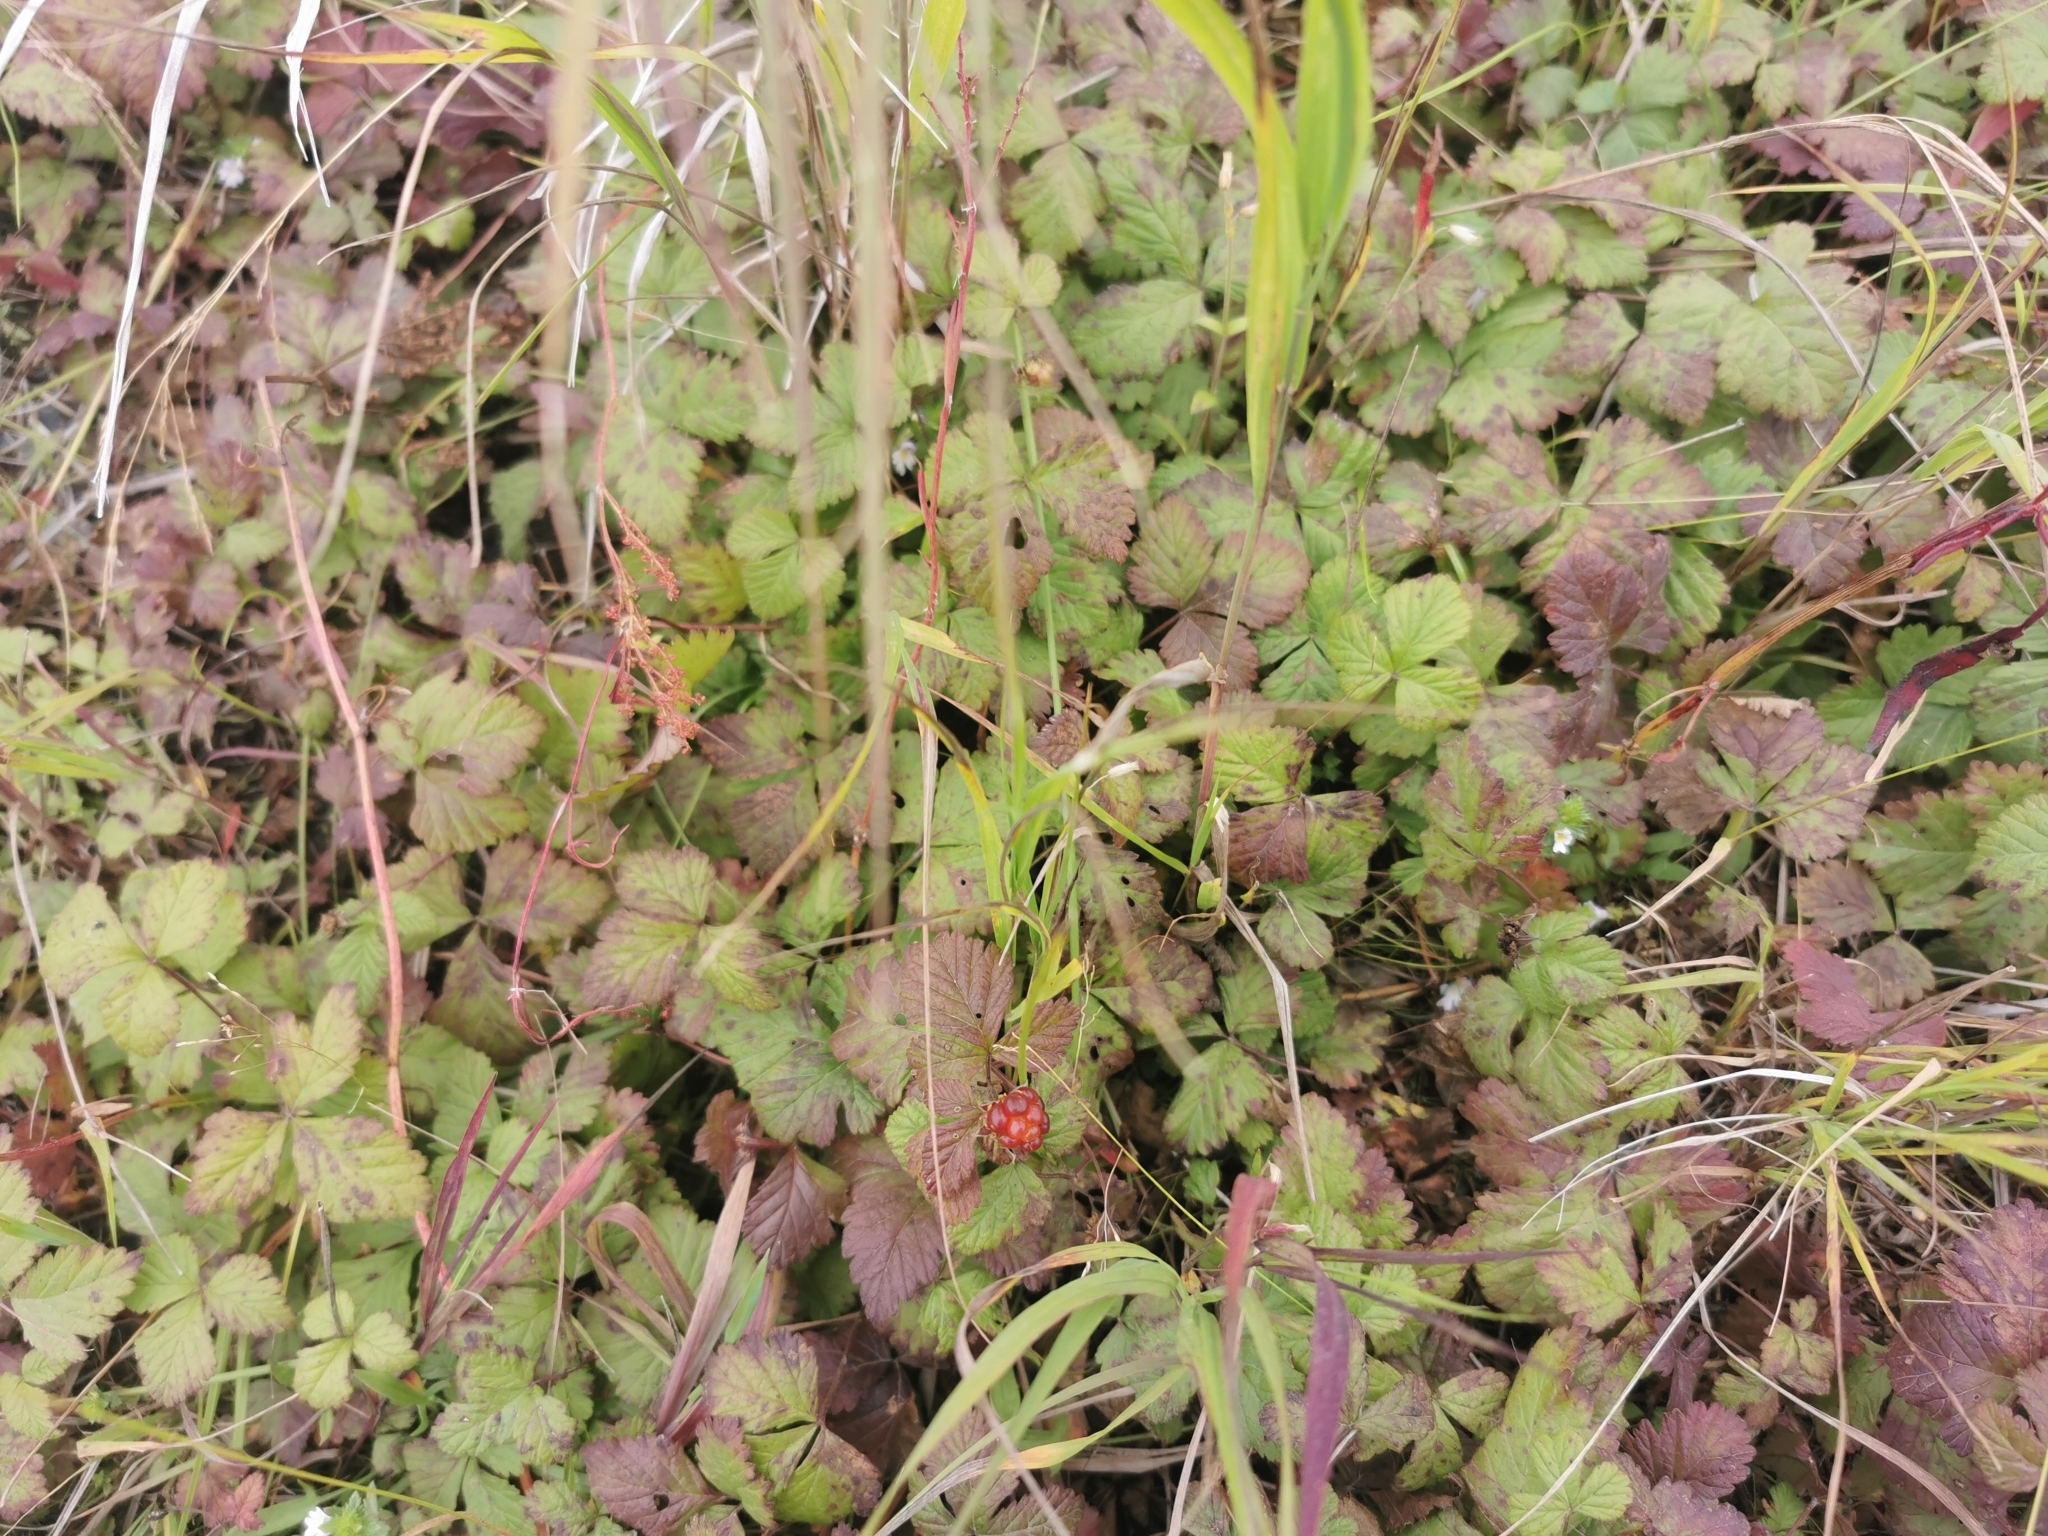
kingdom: Plantae
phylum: Tracheophyta
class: Magnoliopsida
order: Rosales
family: Rosaceae
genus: Rubus
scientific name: Rubus arcticus
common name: Arctic bramble
